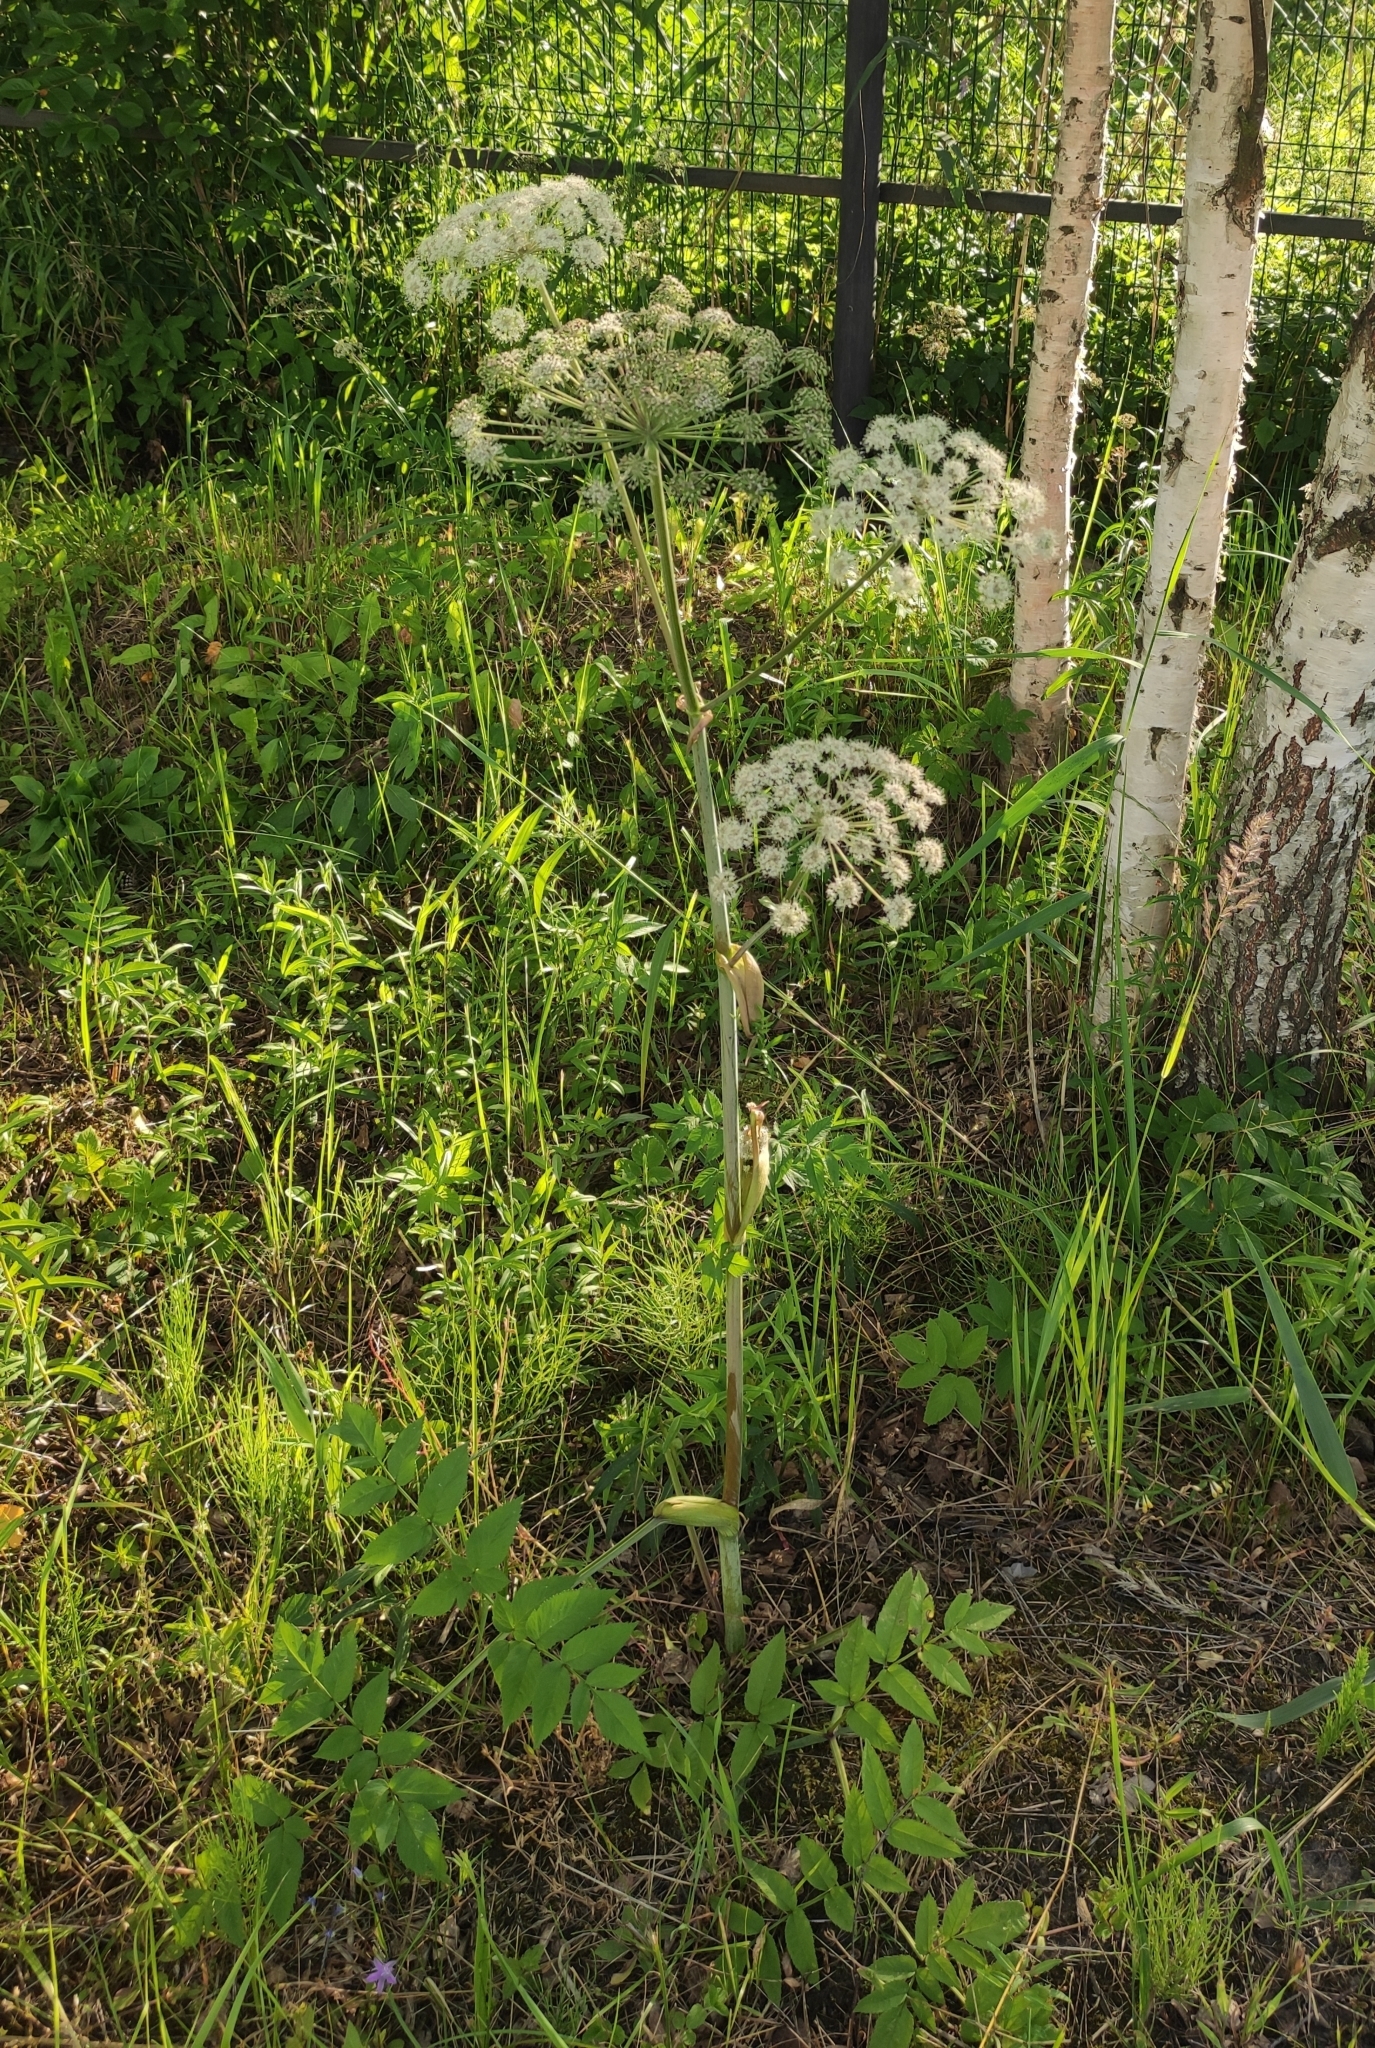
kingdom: Plantae
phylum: Tracheophyta
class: Magnoliopsida
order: Apiales
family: Apiaceae
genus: Angelica
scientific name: Angelica sylvestris
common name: Wild angelica
